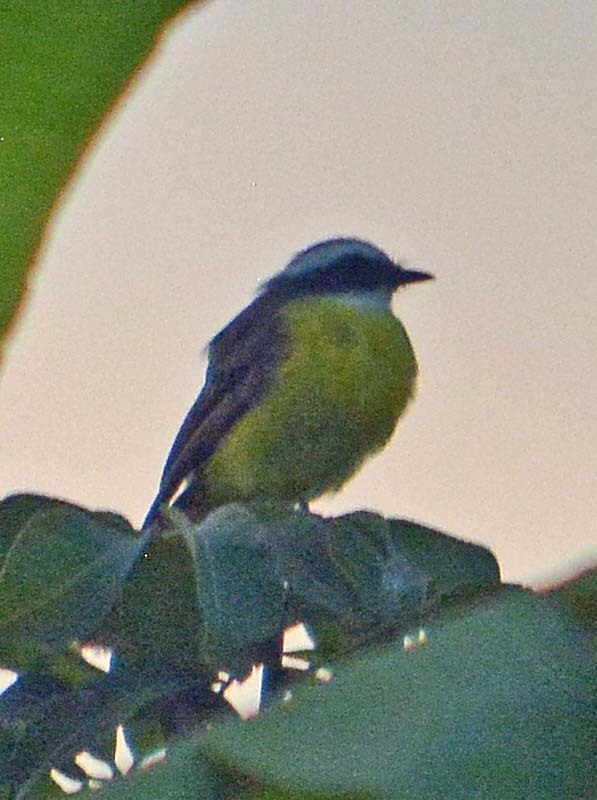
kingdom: Animalia
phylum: Chordata
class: Aves
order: Passeriformes
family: Tyrannidae
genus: Myiozetetes
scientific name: Myiozetetes similis
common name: Social flycatcher
